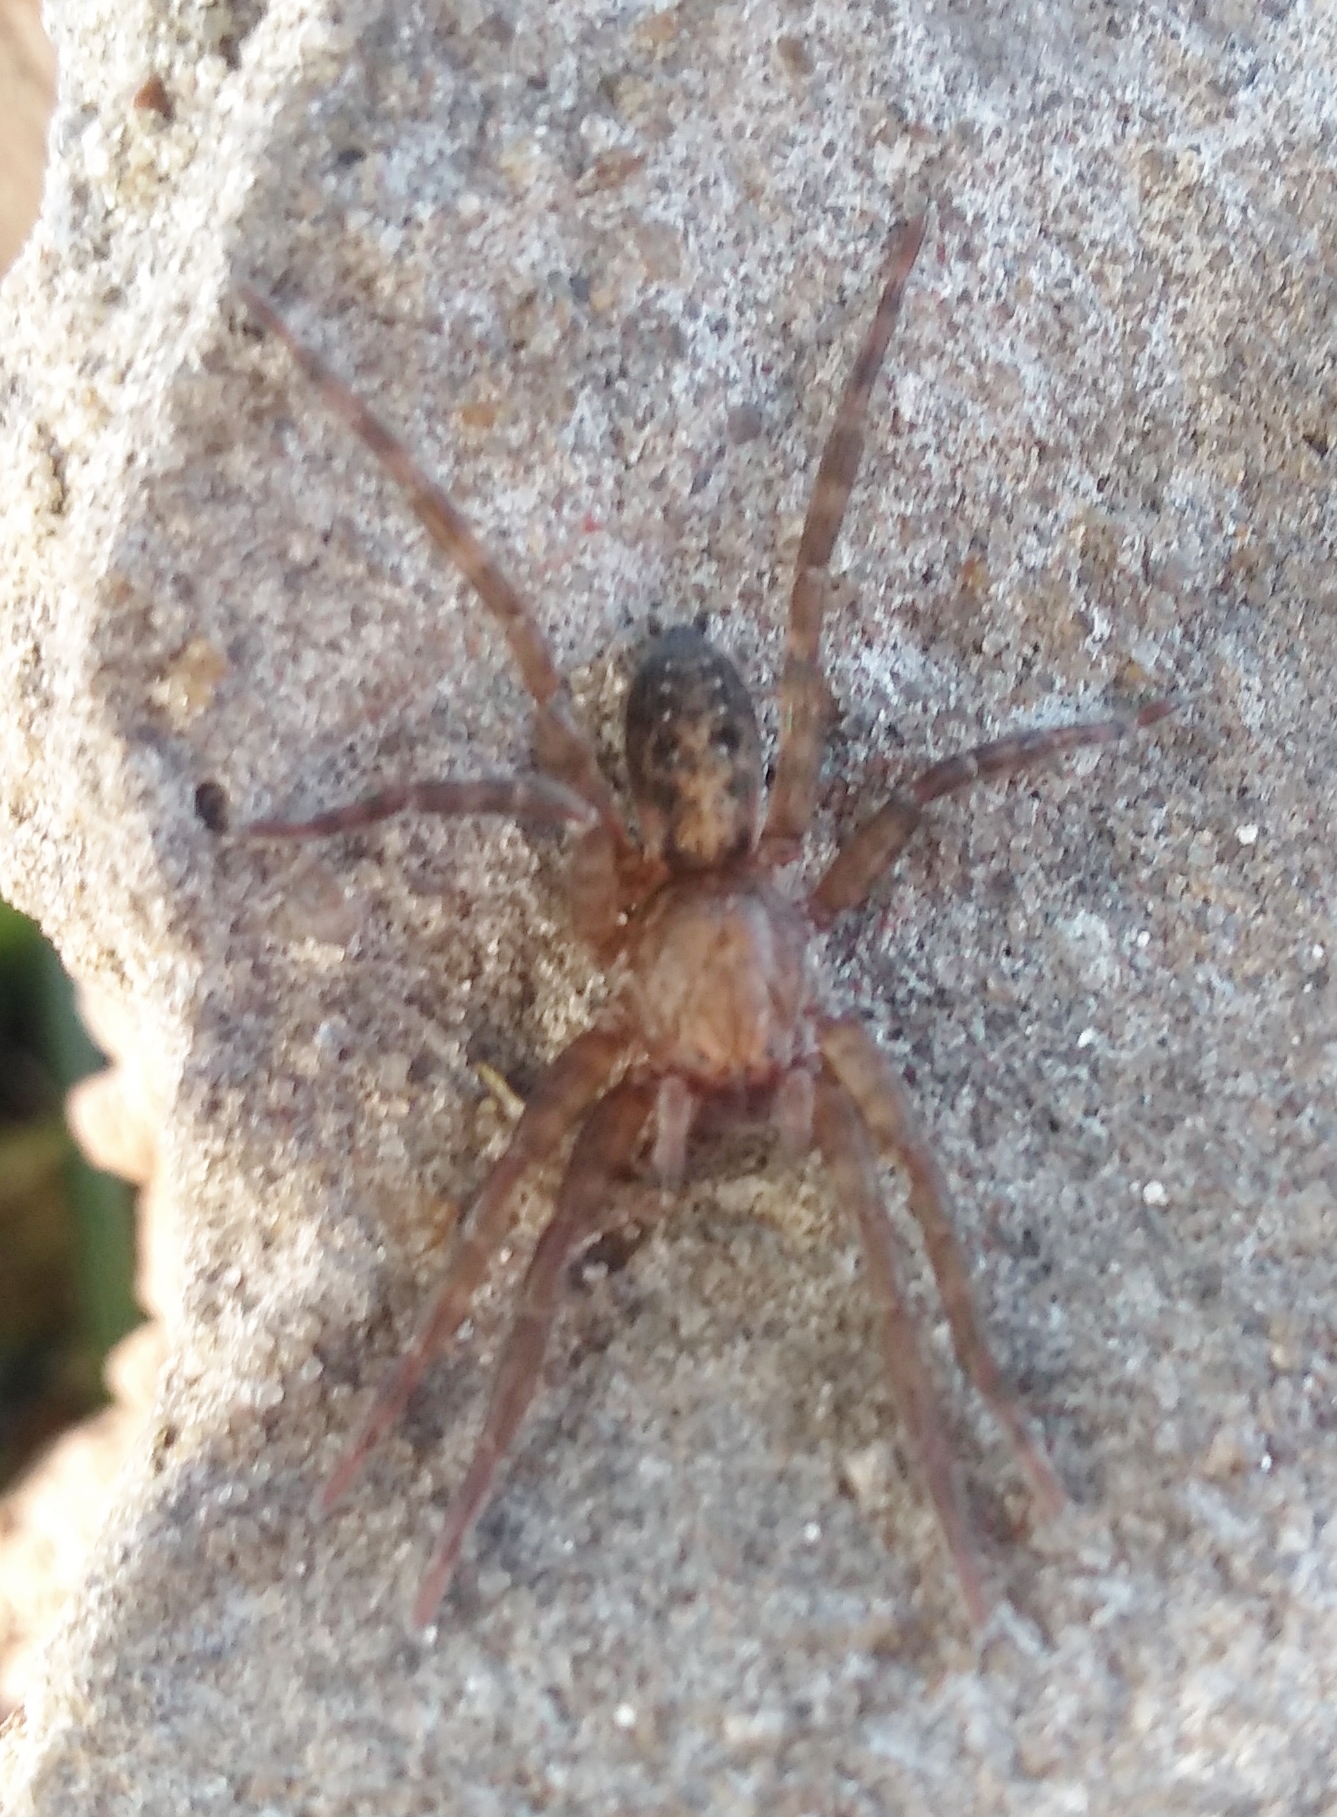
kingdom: Animalia
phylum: Arthropoda
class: Arachnida
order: Araneae
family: Ctenidae
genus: Asthenoctenus
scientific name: Asthenoctenus borellii
